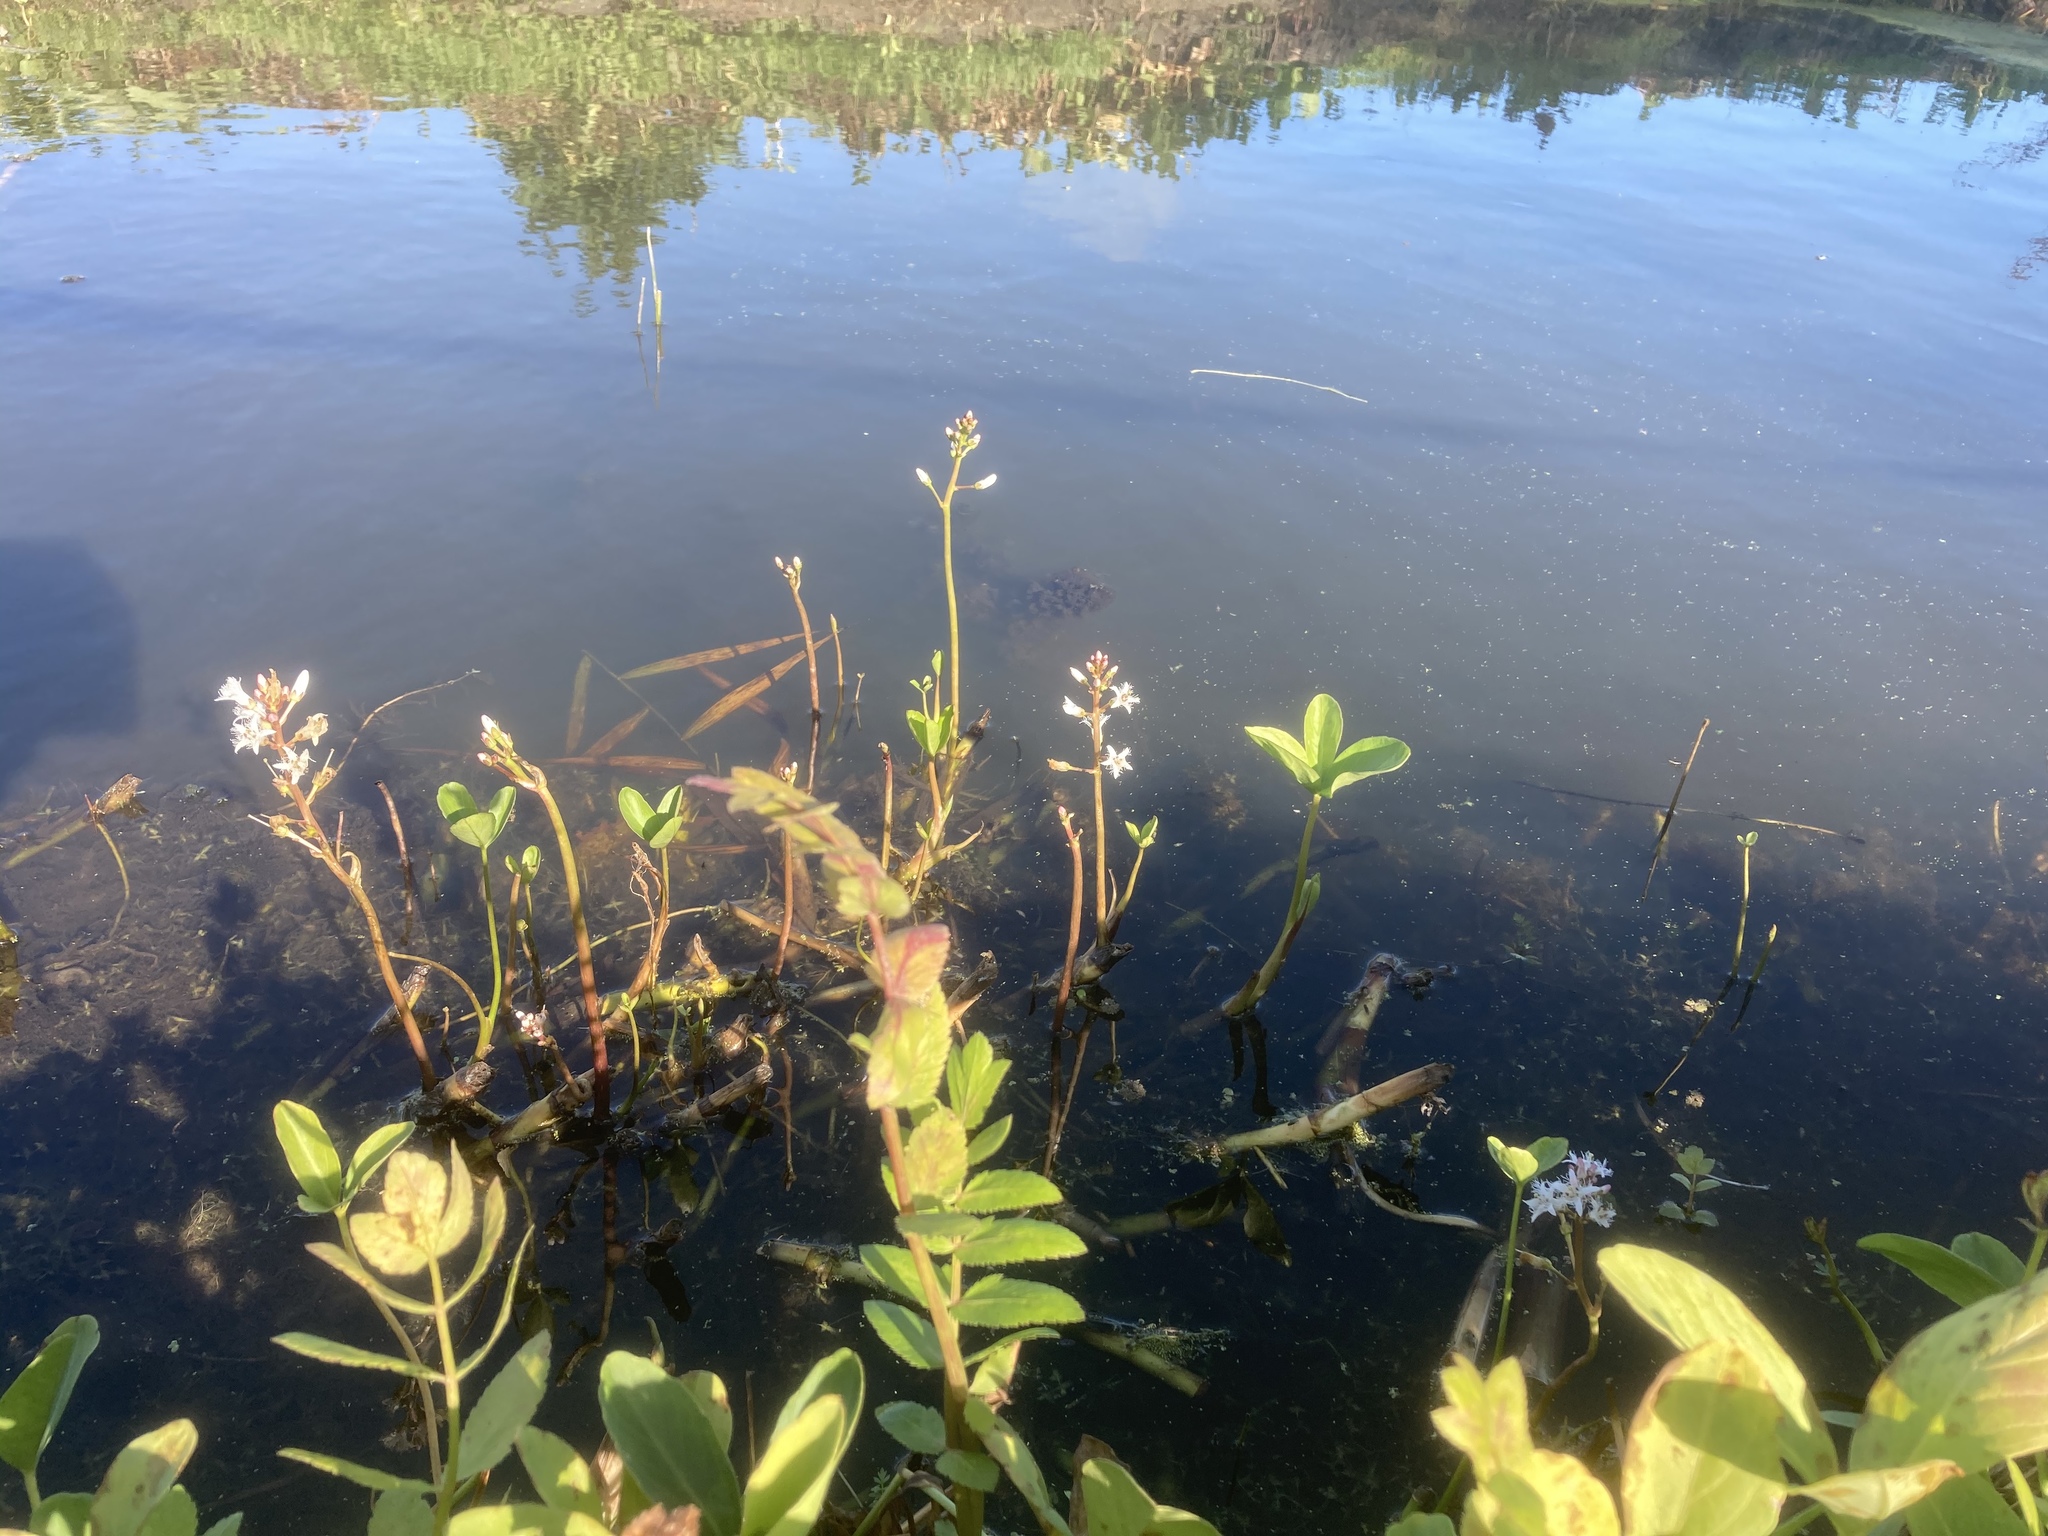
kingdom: Plantae
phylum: Tracheophyta
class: Magnoliopsida
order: Asterales
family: Menyanthaceae
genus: Menyanthes
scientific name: Menyanthes trifoliata
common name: Bogbean
